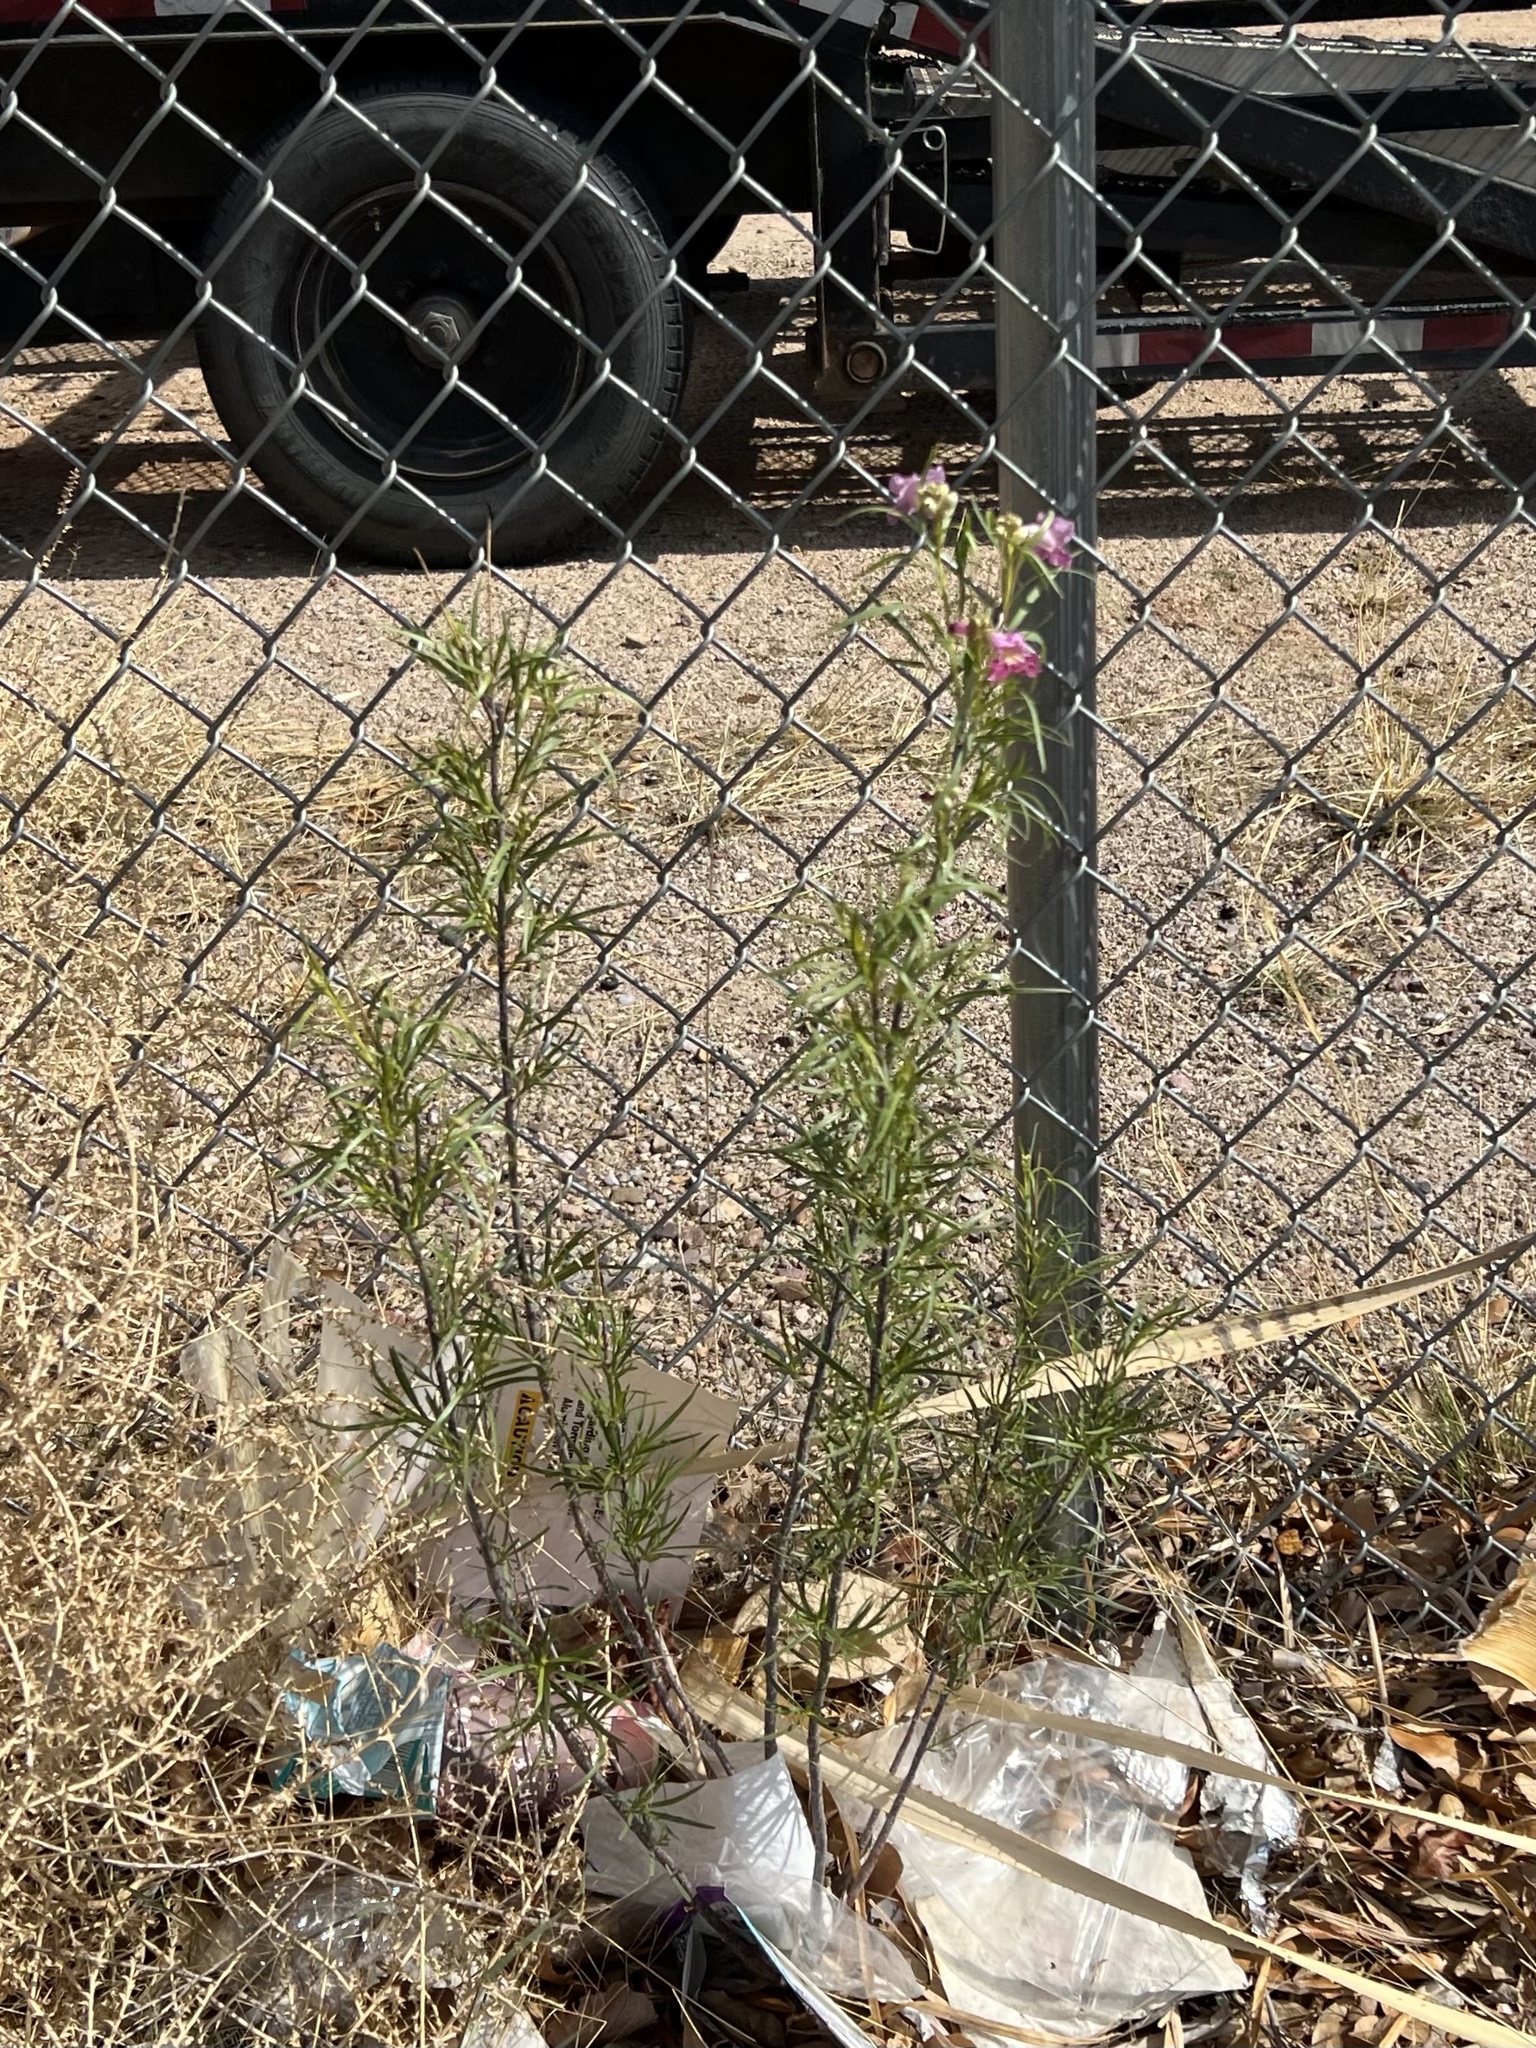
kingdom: Plantae
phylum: Tracheophyta
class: Magnoliopsida
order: Lamiales
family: Bignoniaceae
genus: Chilopsis
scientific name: Chilopsis linearis
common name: Desert-willow
